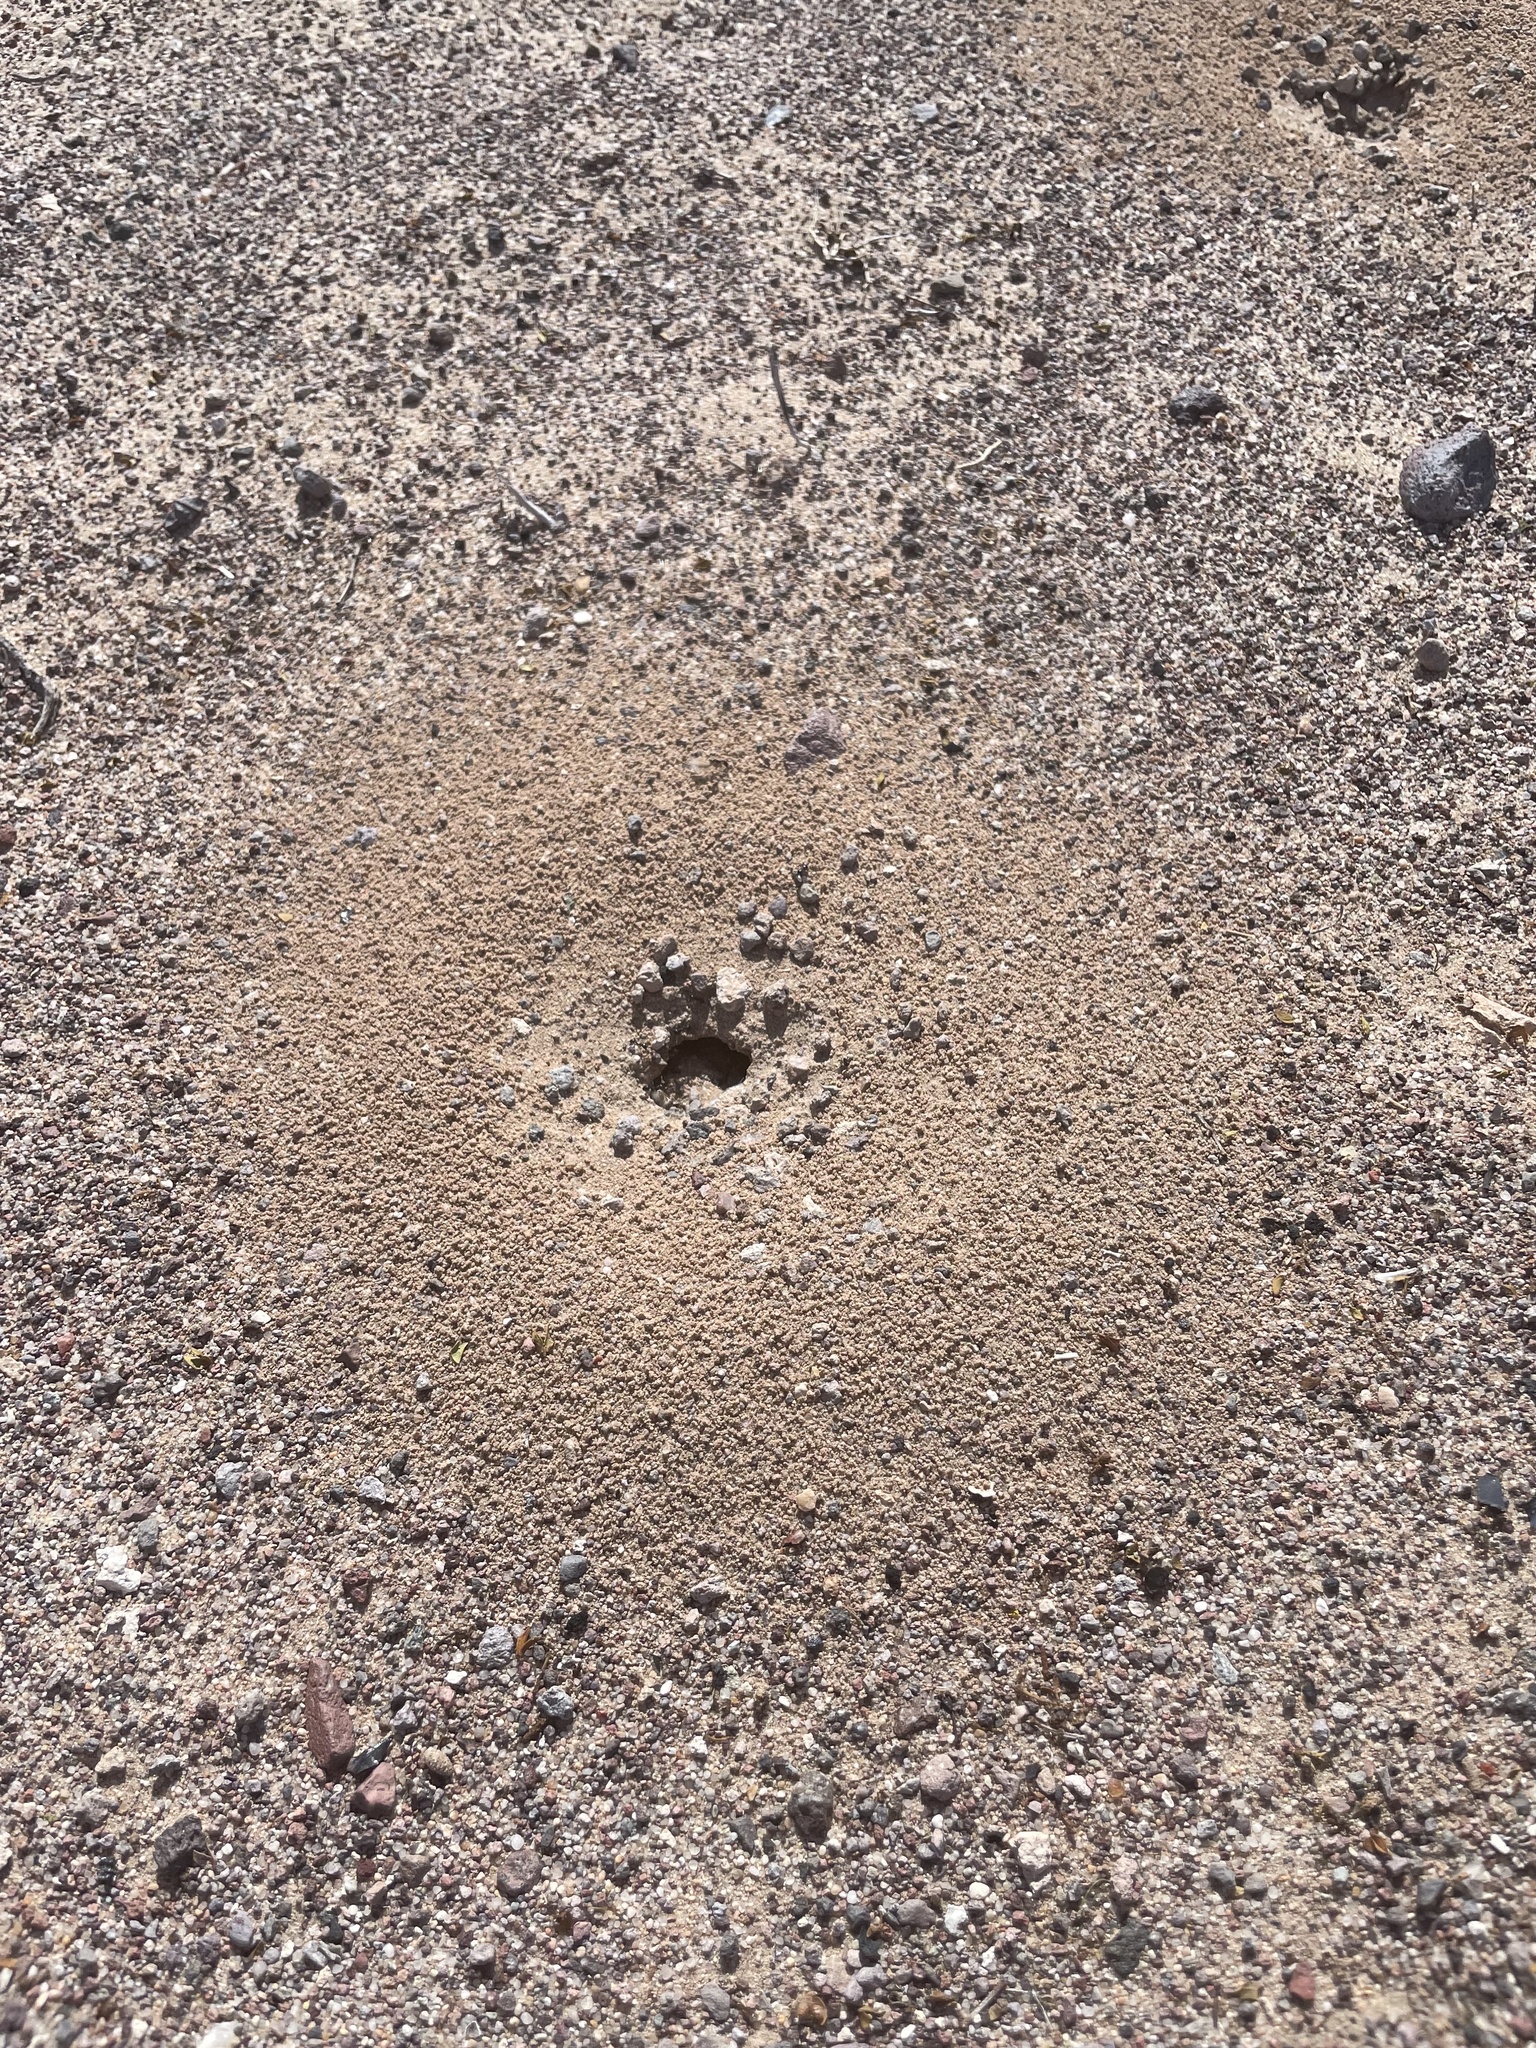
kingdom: Animalia
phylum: Arthropoda
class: Insecta
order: Hymenoptera
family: Formicidae
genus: Messor
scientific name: Messor pergandei
